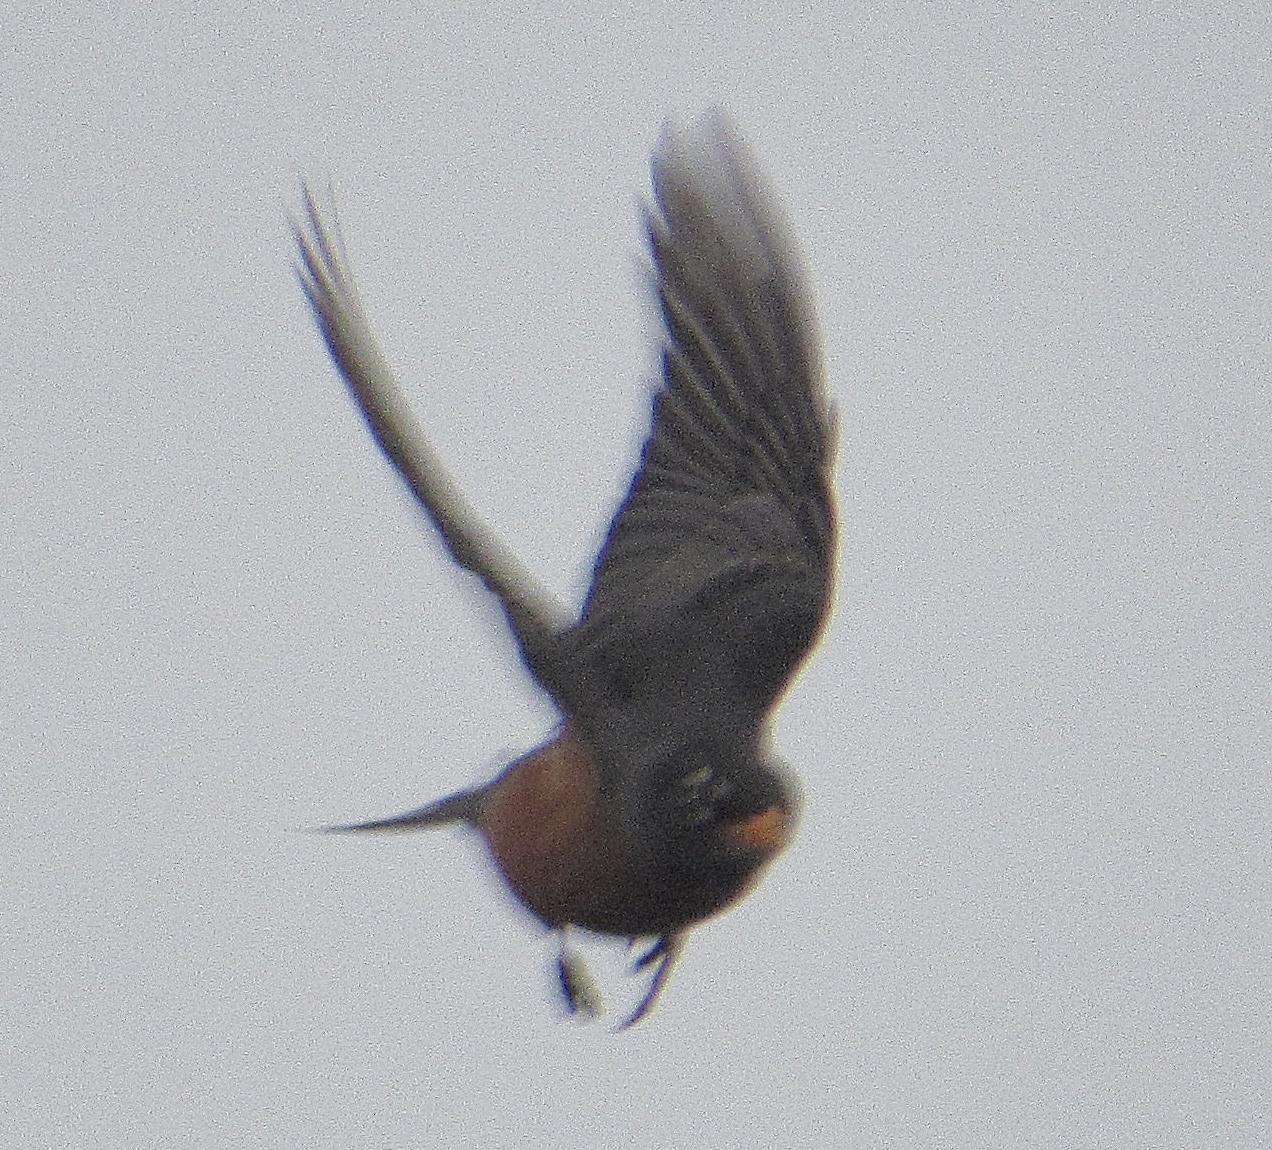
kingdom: Animalia
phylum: Chordata
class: Aves
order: Passeriformes
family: Turdidae
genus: Turdus
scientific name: Turdus migratorius
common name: American robin
